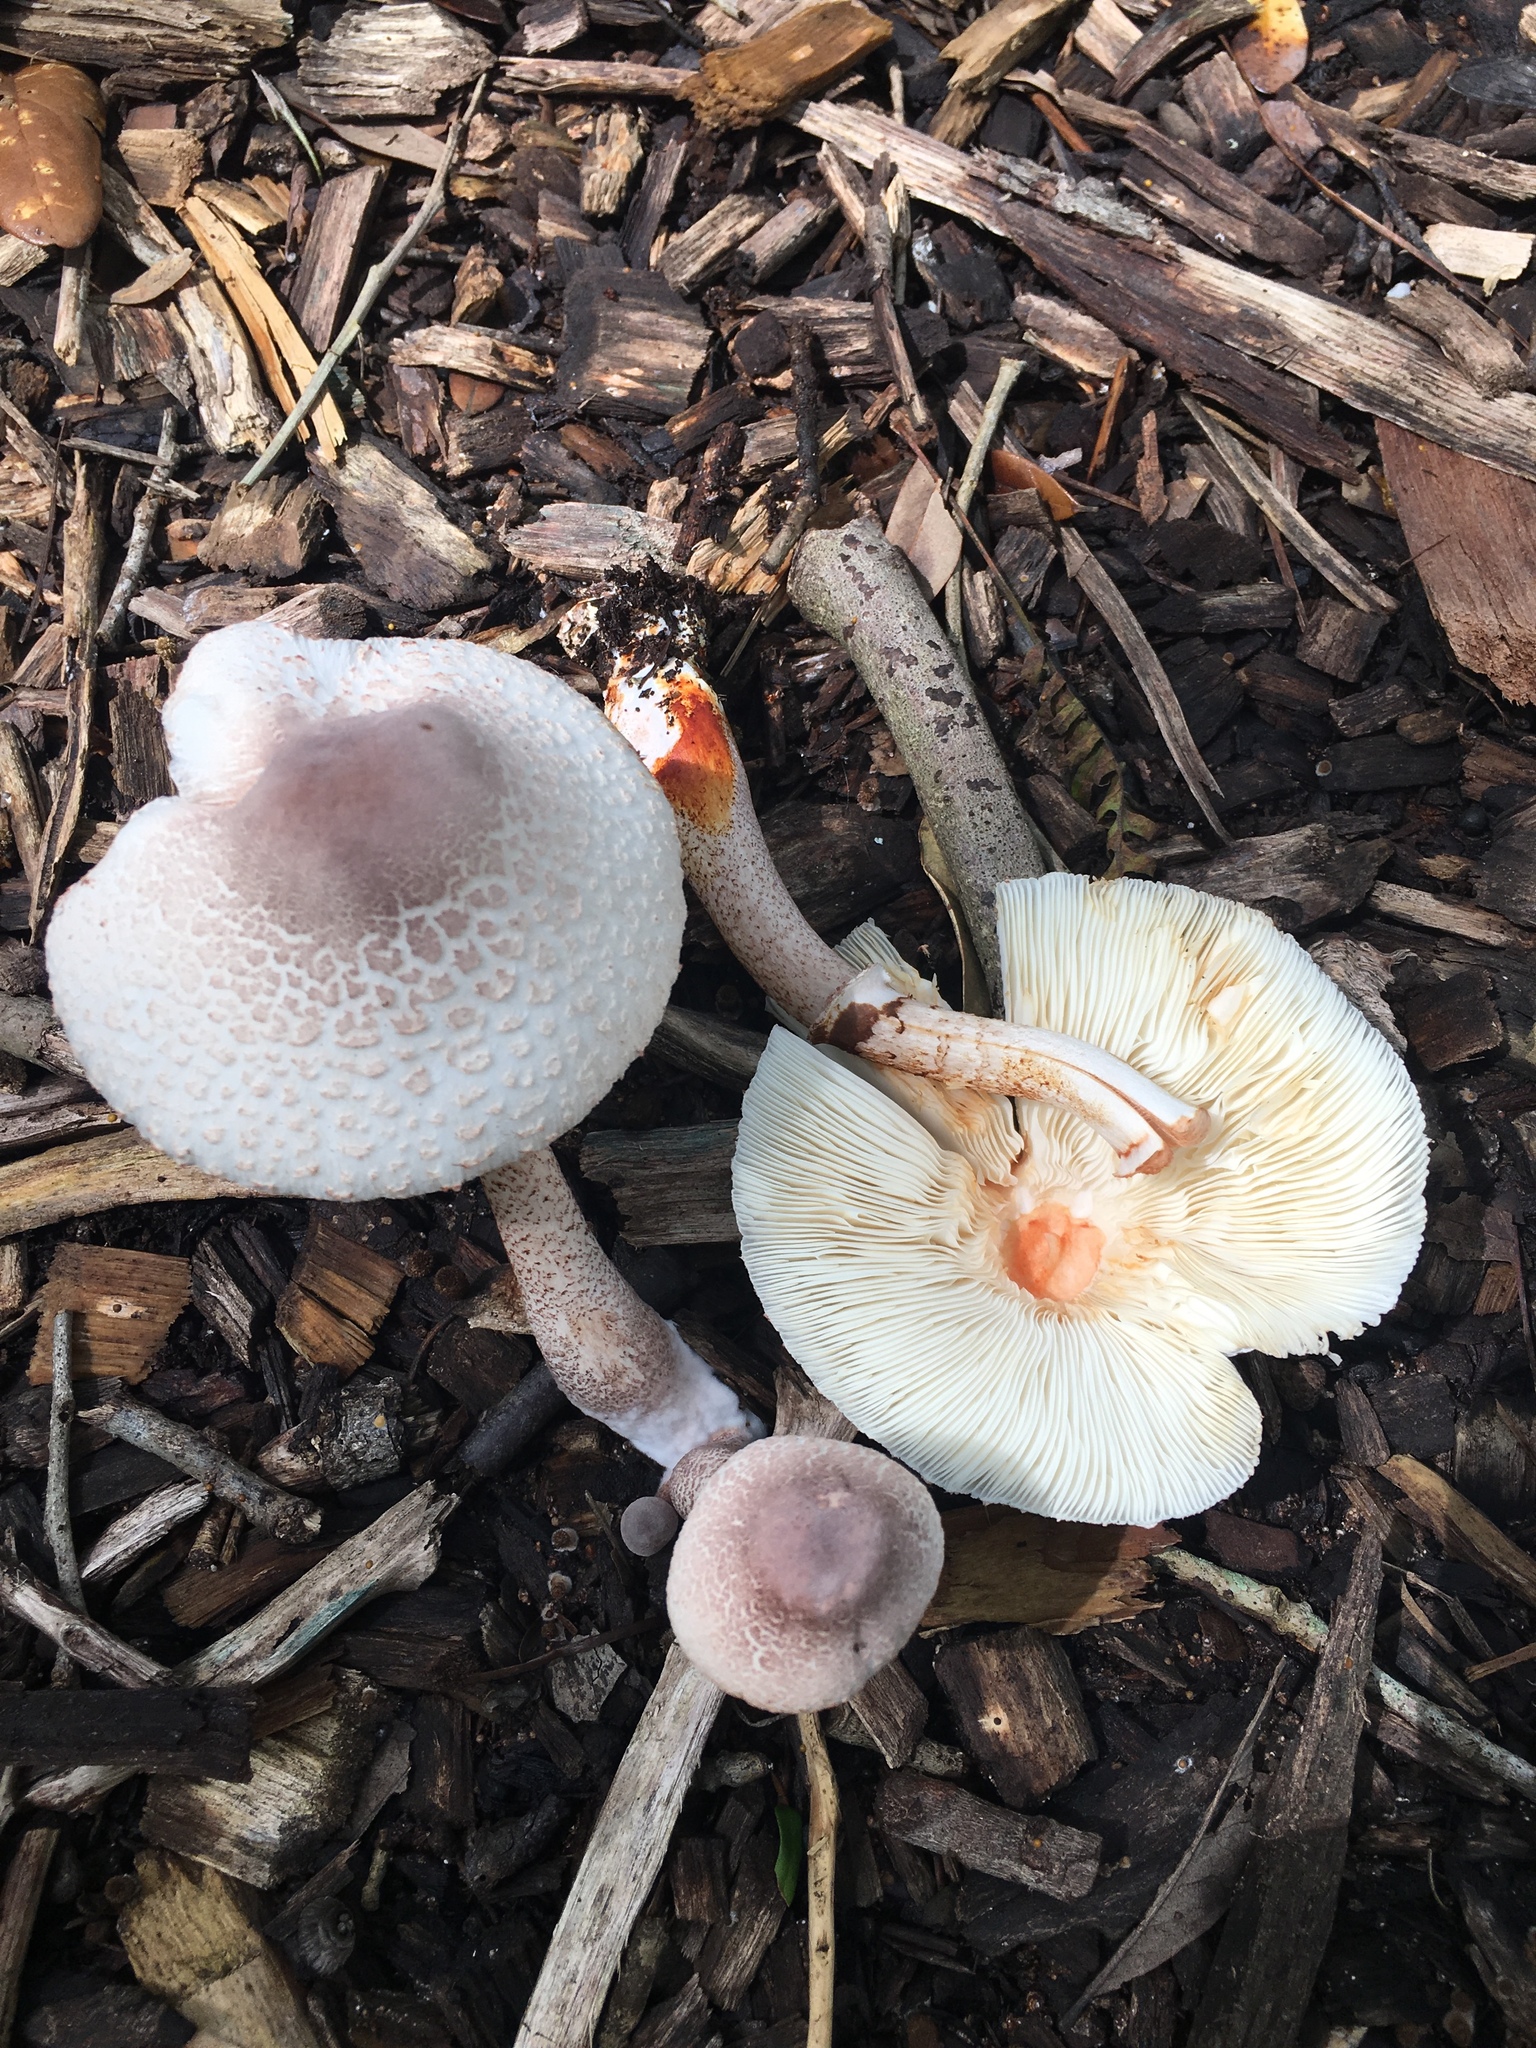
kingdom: Fungi
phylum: Basidiomycota
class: Agaricomycetes
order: Agaricales
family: Agaricaceae
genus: Leucoagaricus
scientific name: Leucoagaricus americanus
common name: Reddening lepiota
